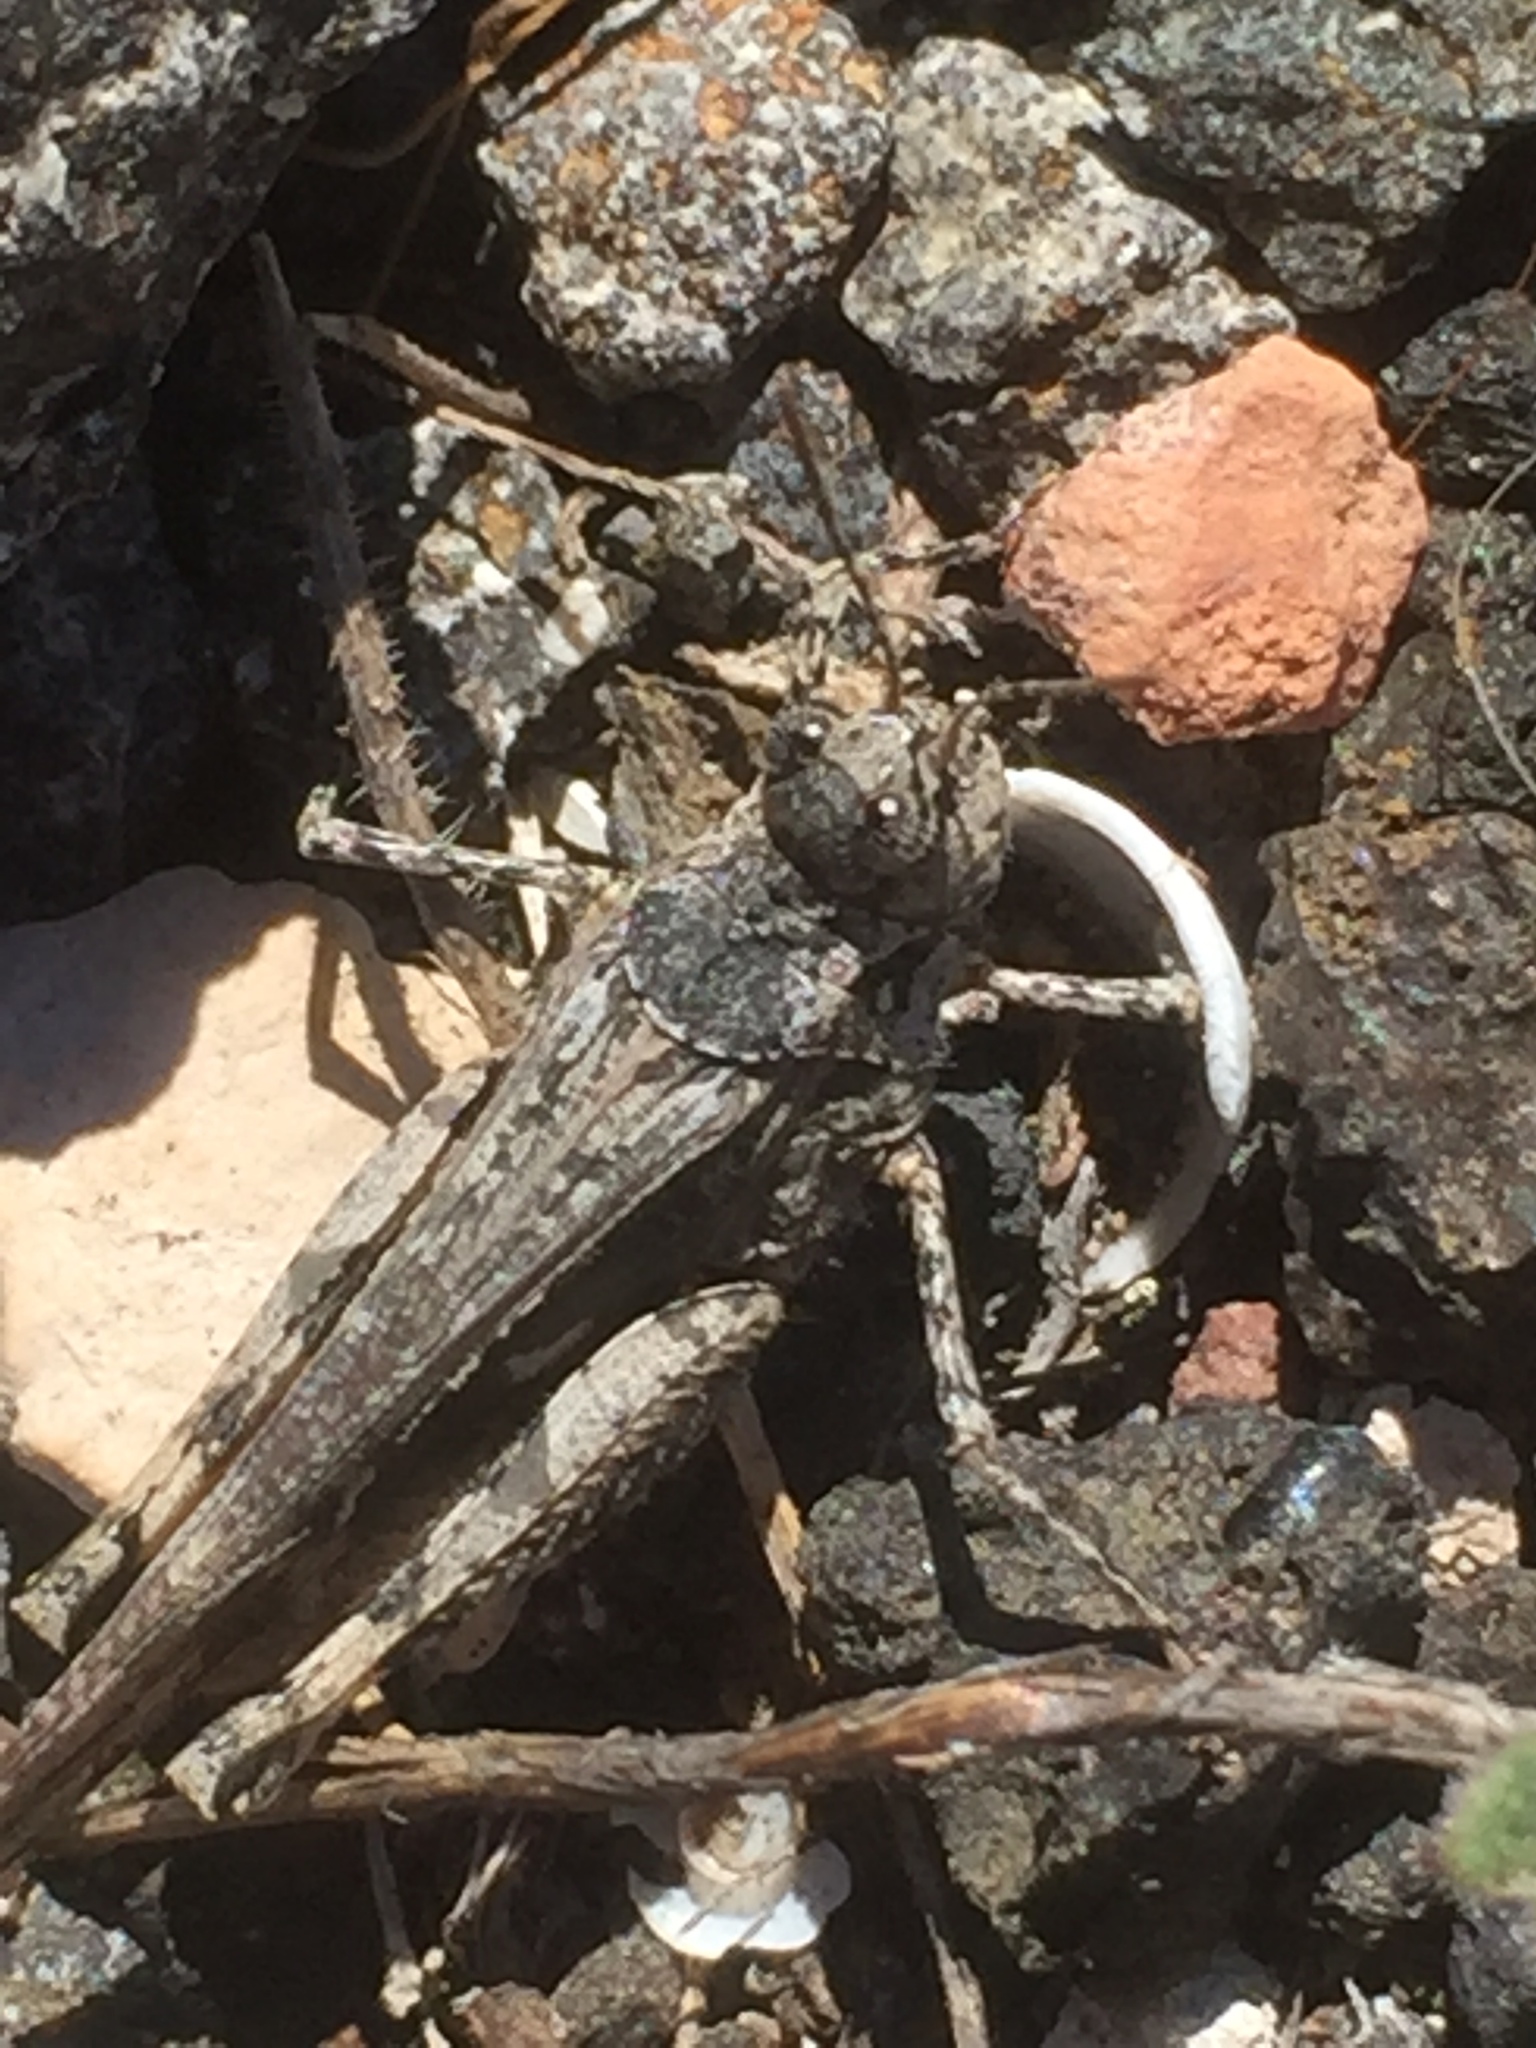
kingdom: Animalia
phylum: Arthropoda
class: Insecta
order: Orthoptera
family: Acrididae
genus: Acrotylus
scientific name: Acrotylus insubricus
